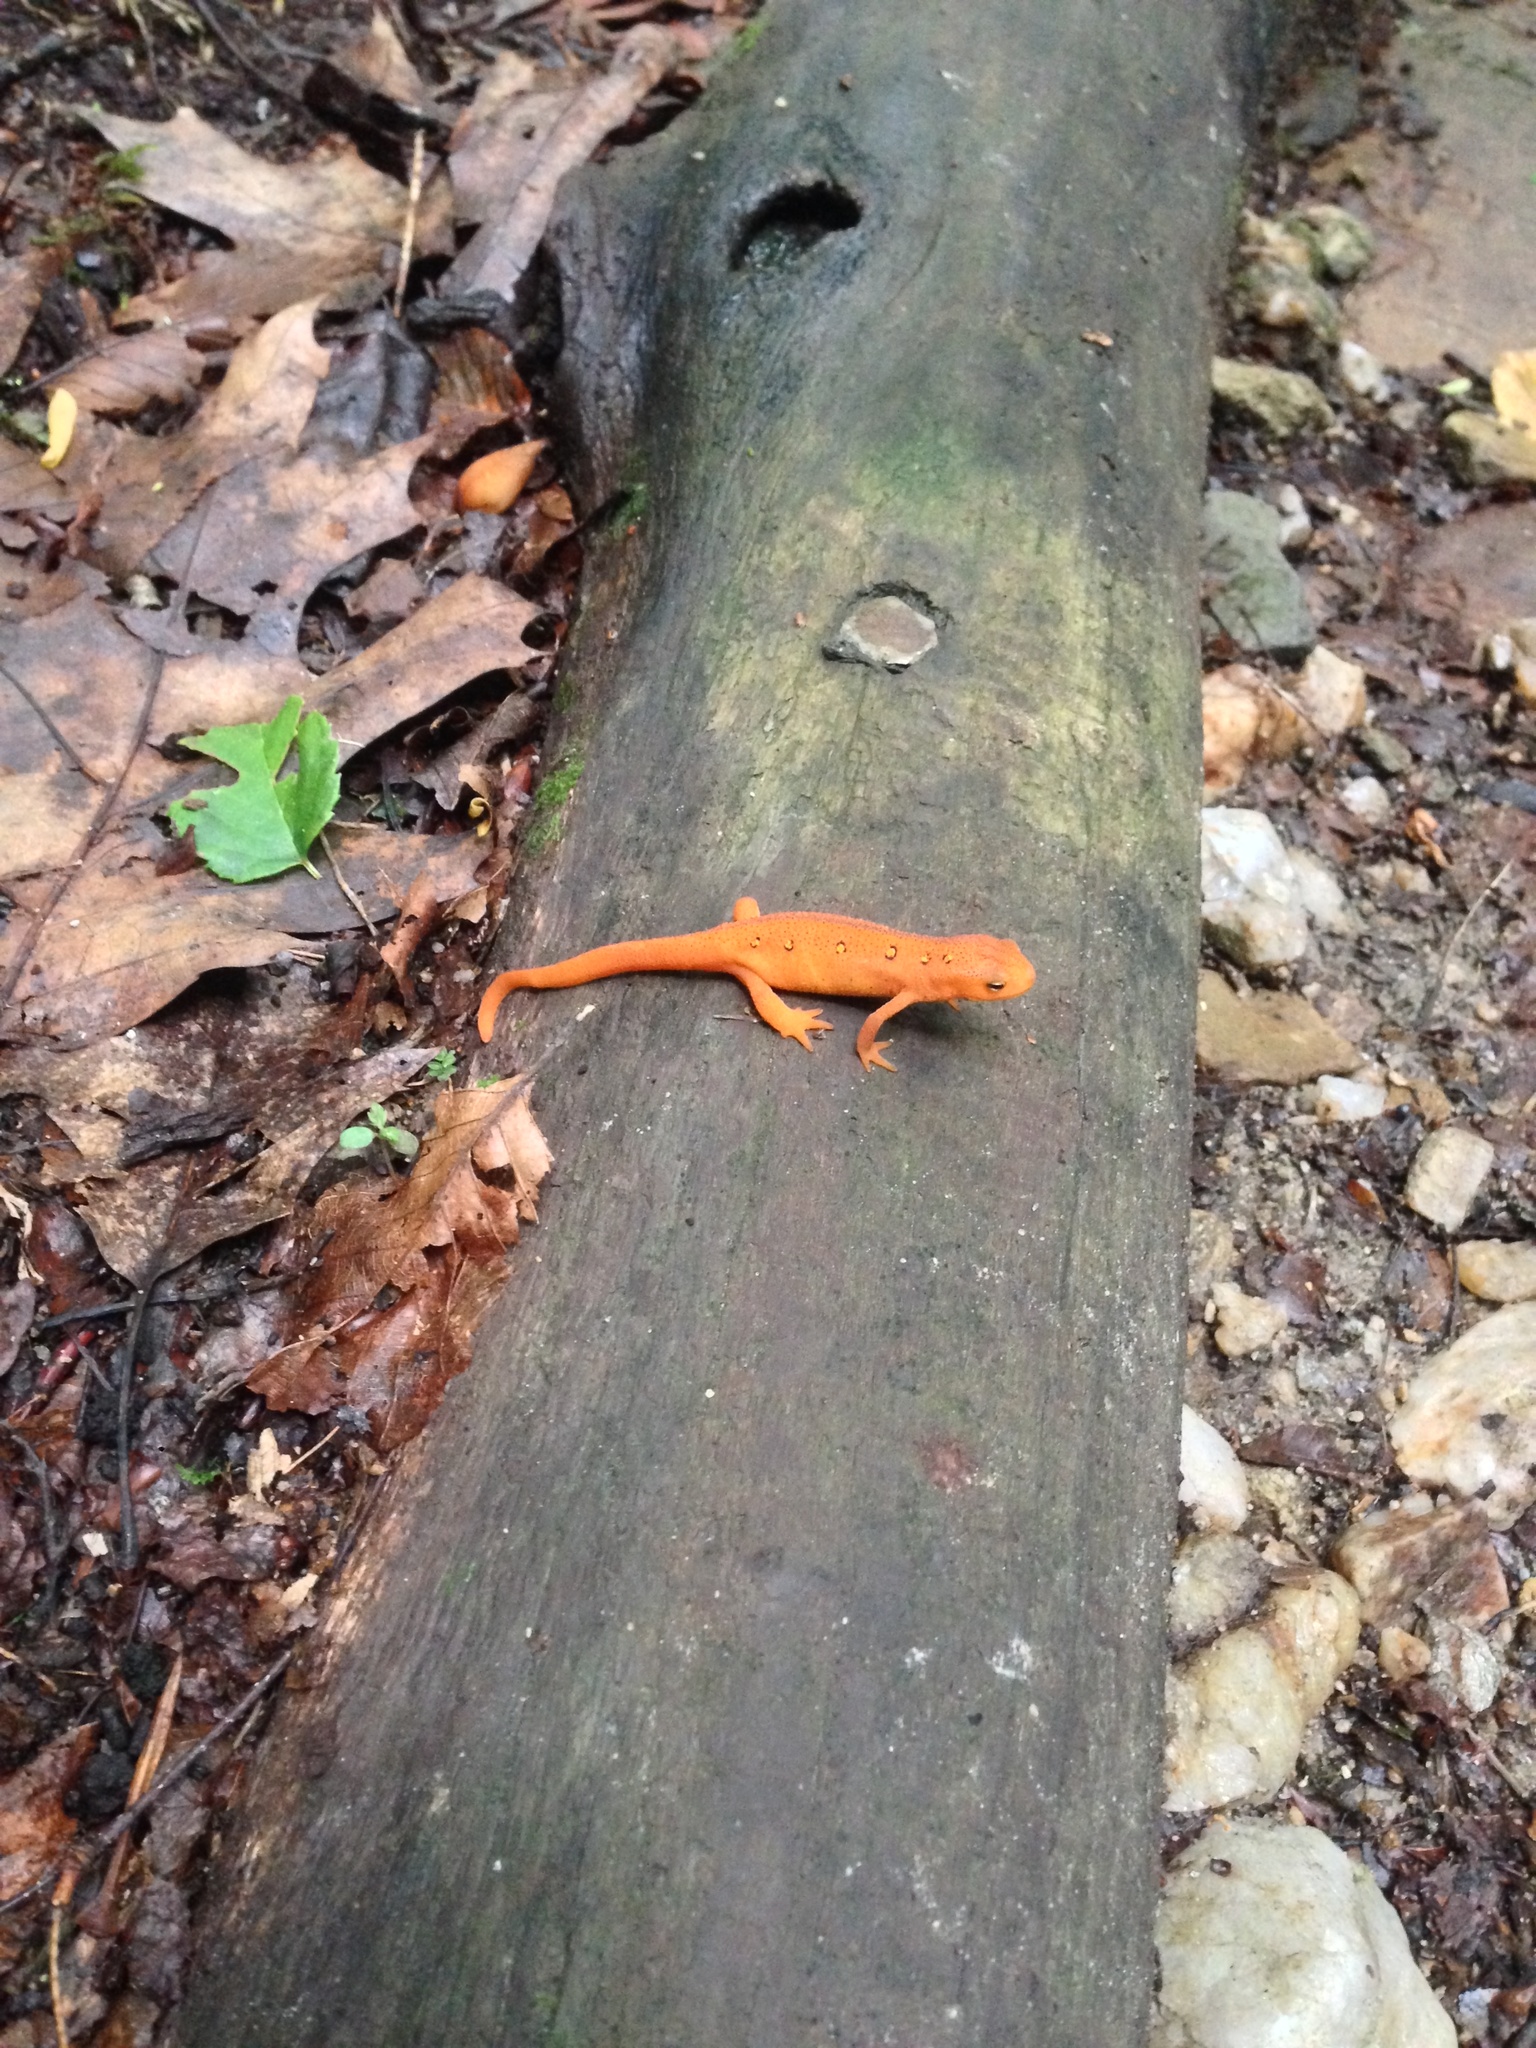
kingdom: Animalia
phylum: Chordata
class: Amphibia
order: Caudata
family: Salamandridae
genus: Notophthalmus
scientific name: Notophthalmus viridescens
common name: Eastern newt
